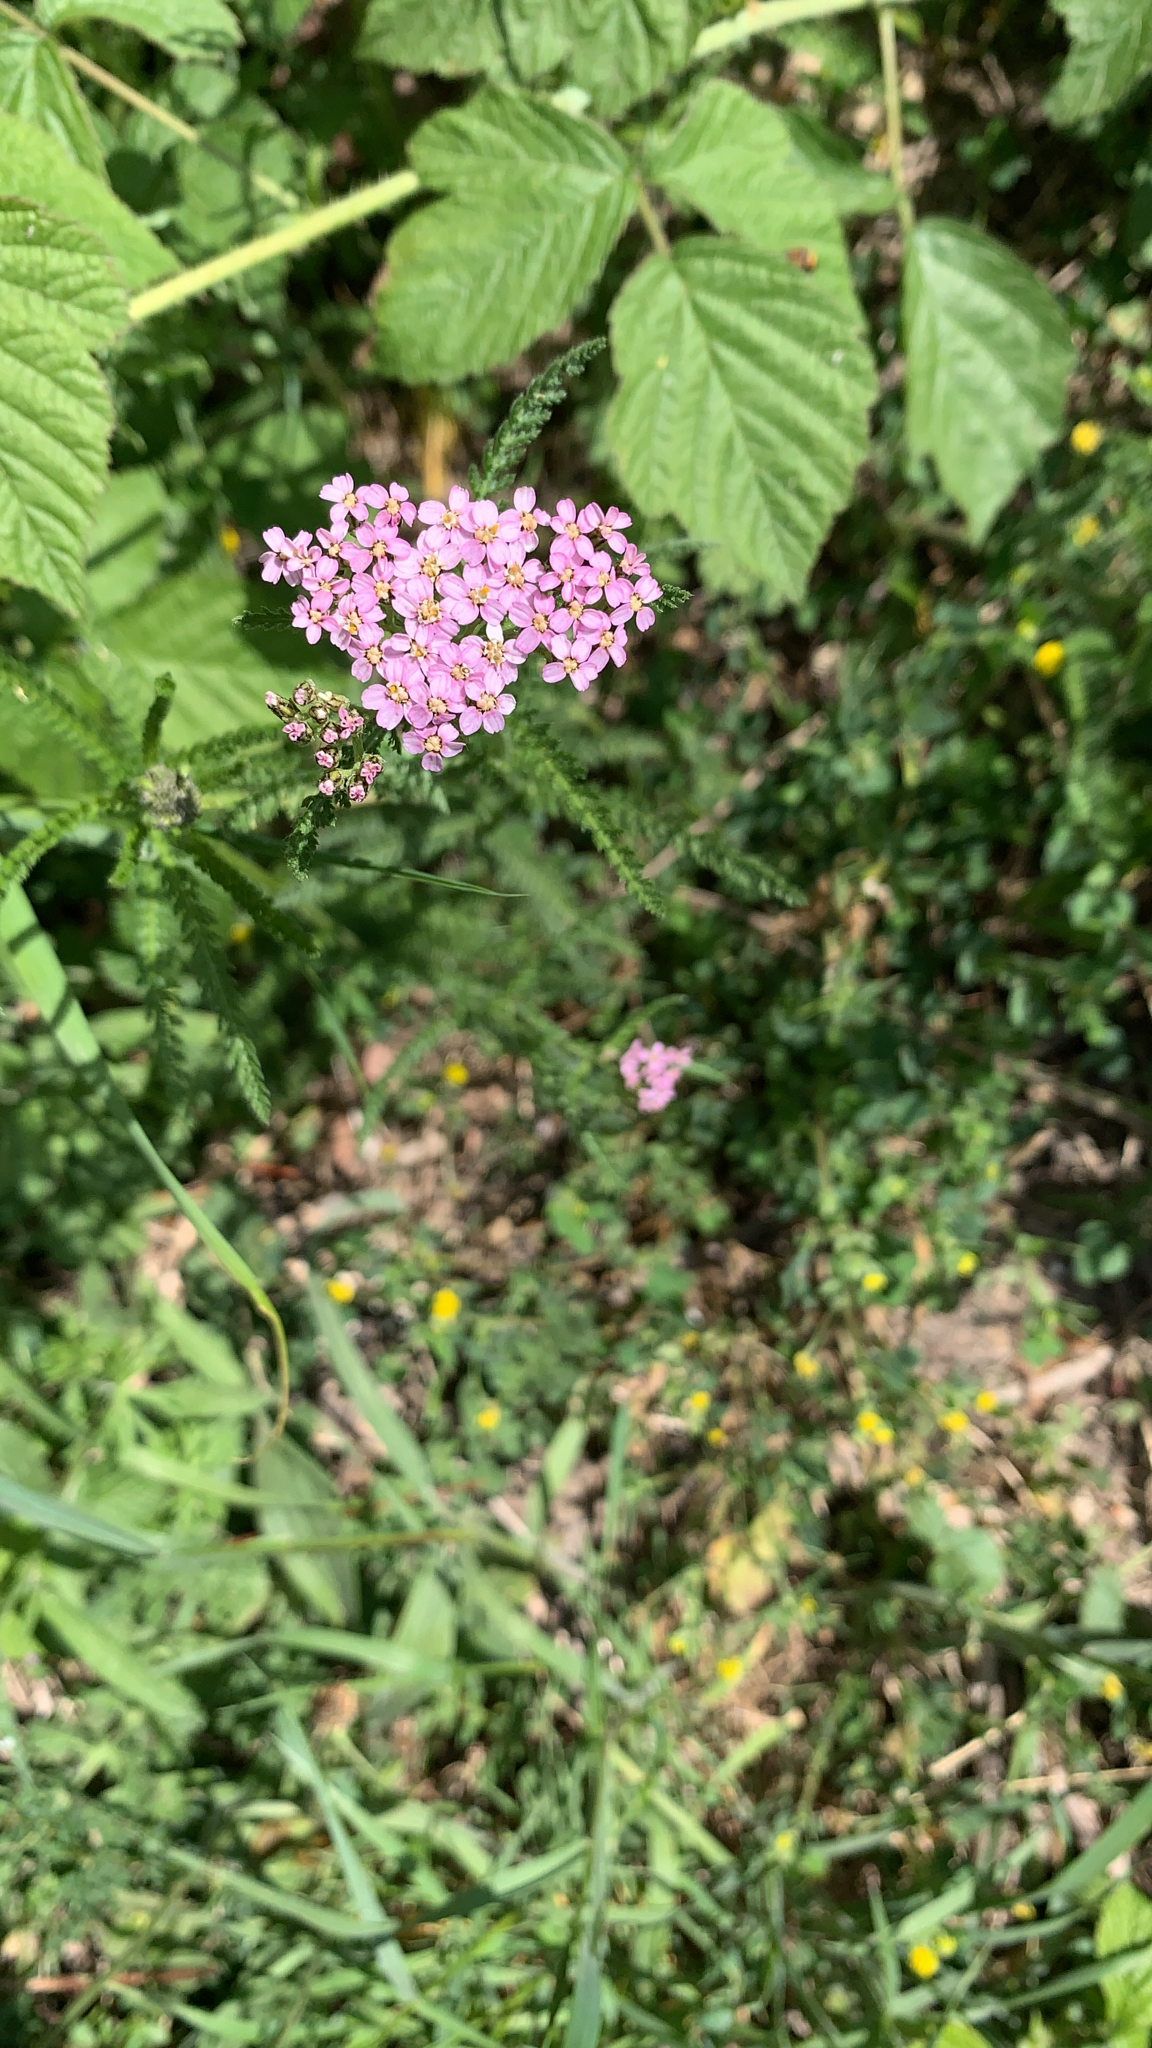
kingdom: Plantae
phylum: Tracheophyta
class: Magnoliopsida
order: Asterales
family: Asteraceae
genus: Achillea
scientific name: Achillea millefolium
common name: Yarrow
